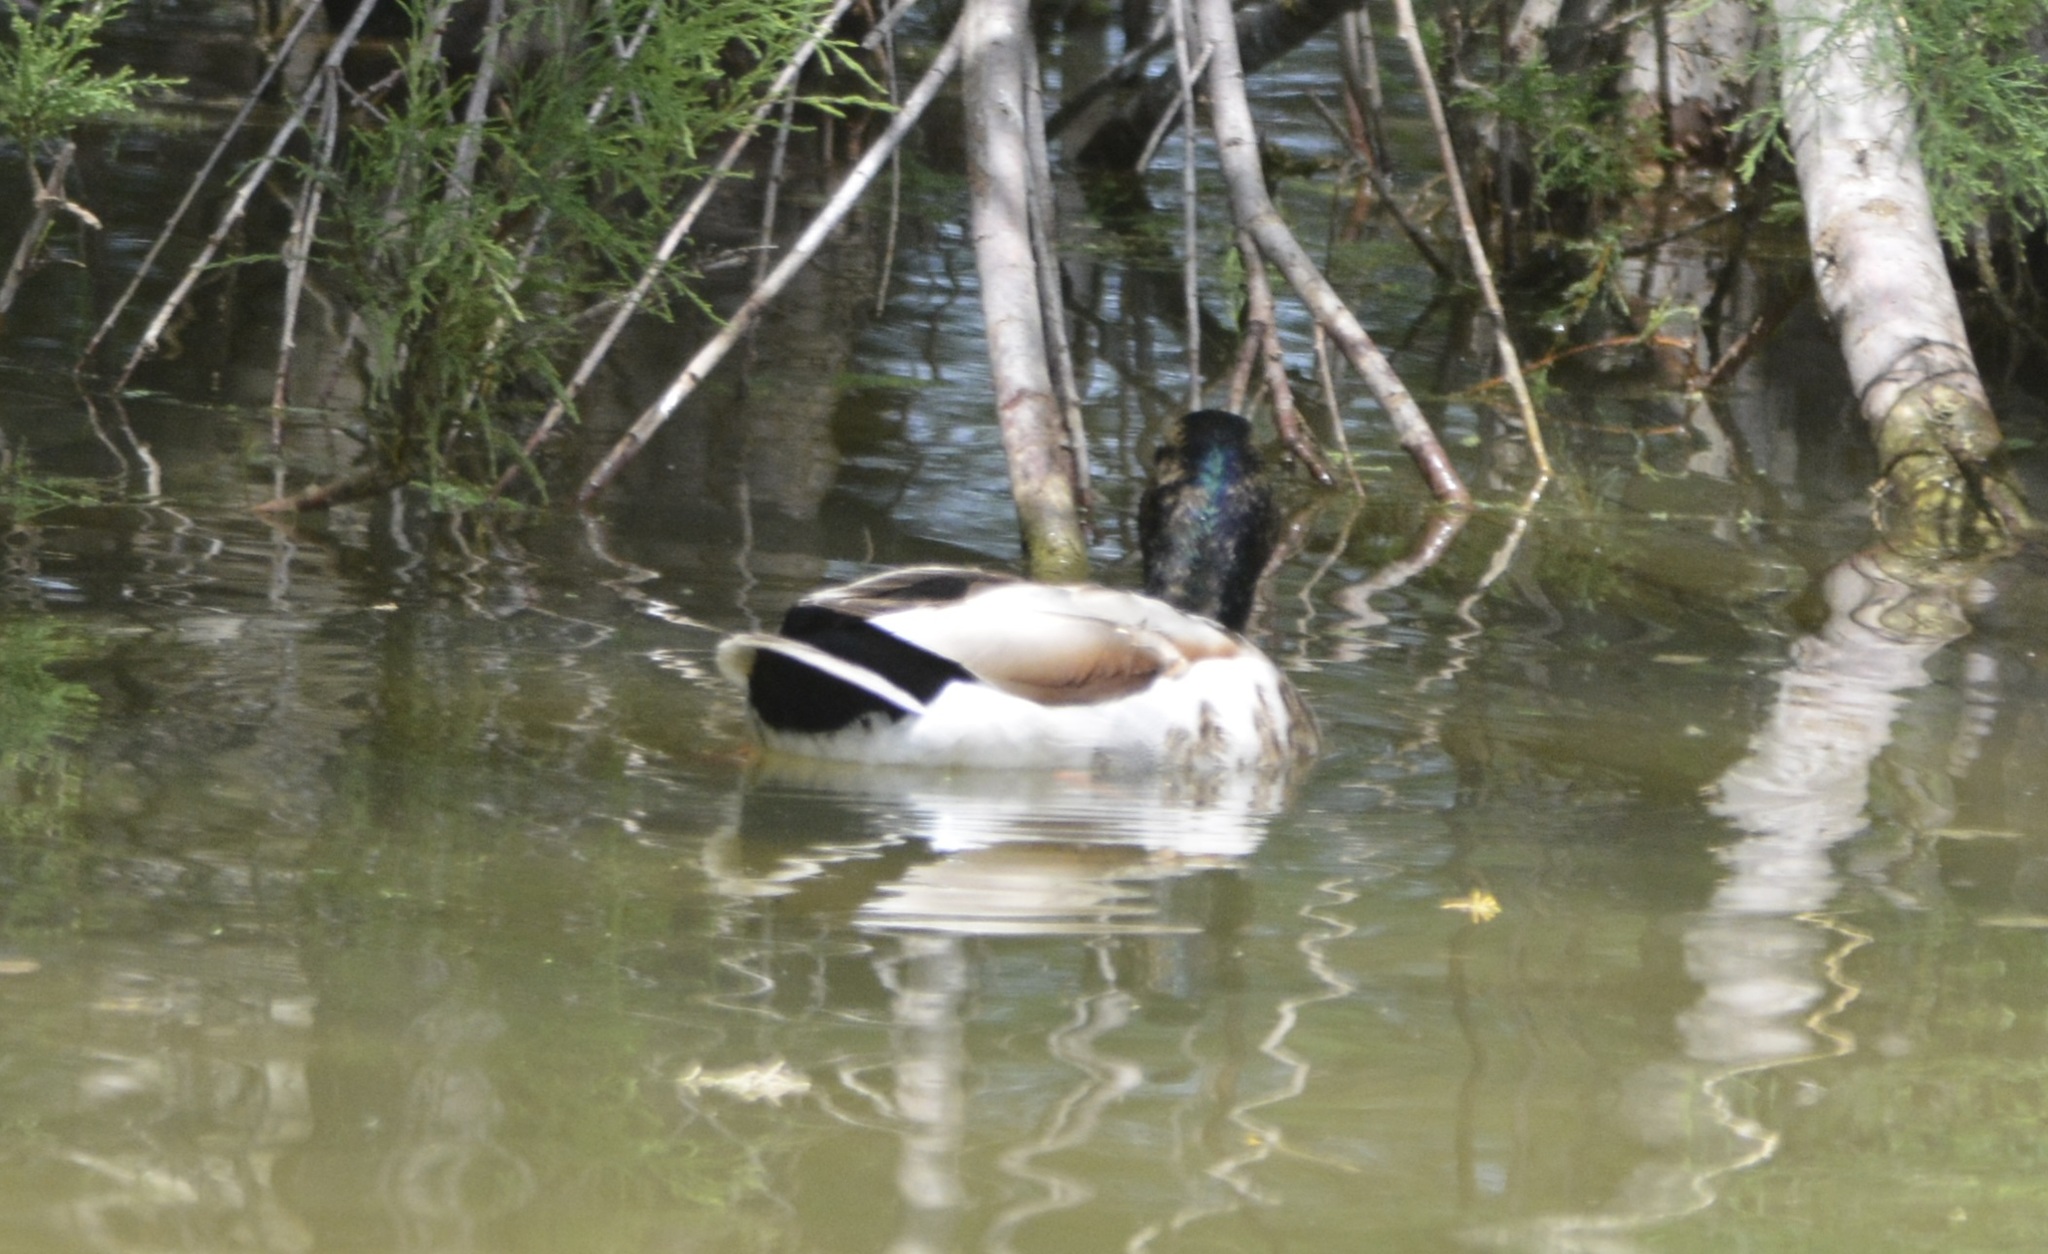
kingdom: Animalia
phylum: Chordata
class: Aves
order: Anseriformes
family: Anatidae
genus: Anas
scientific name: Anas platyrhynchos
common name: Mallard
